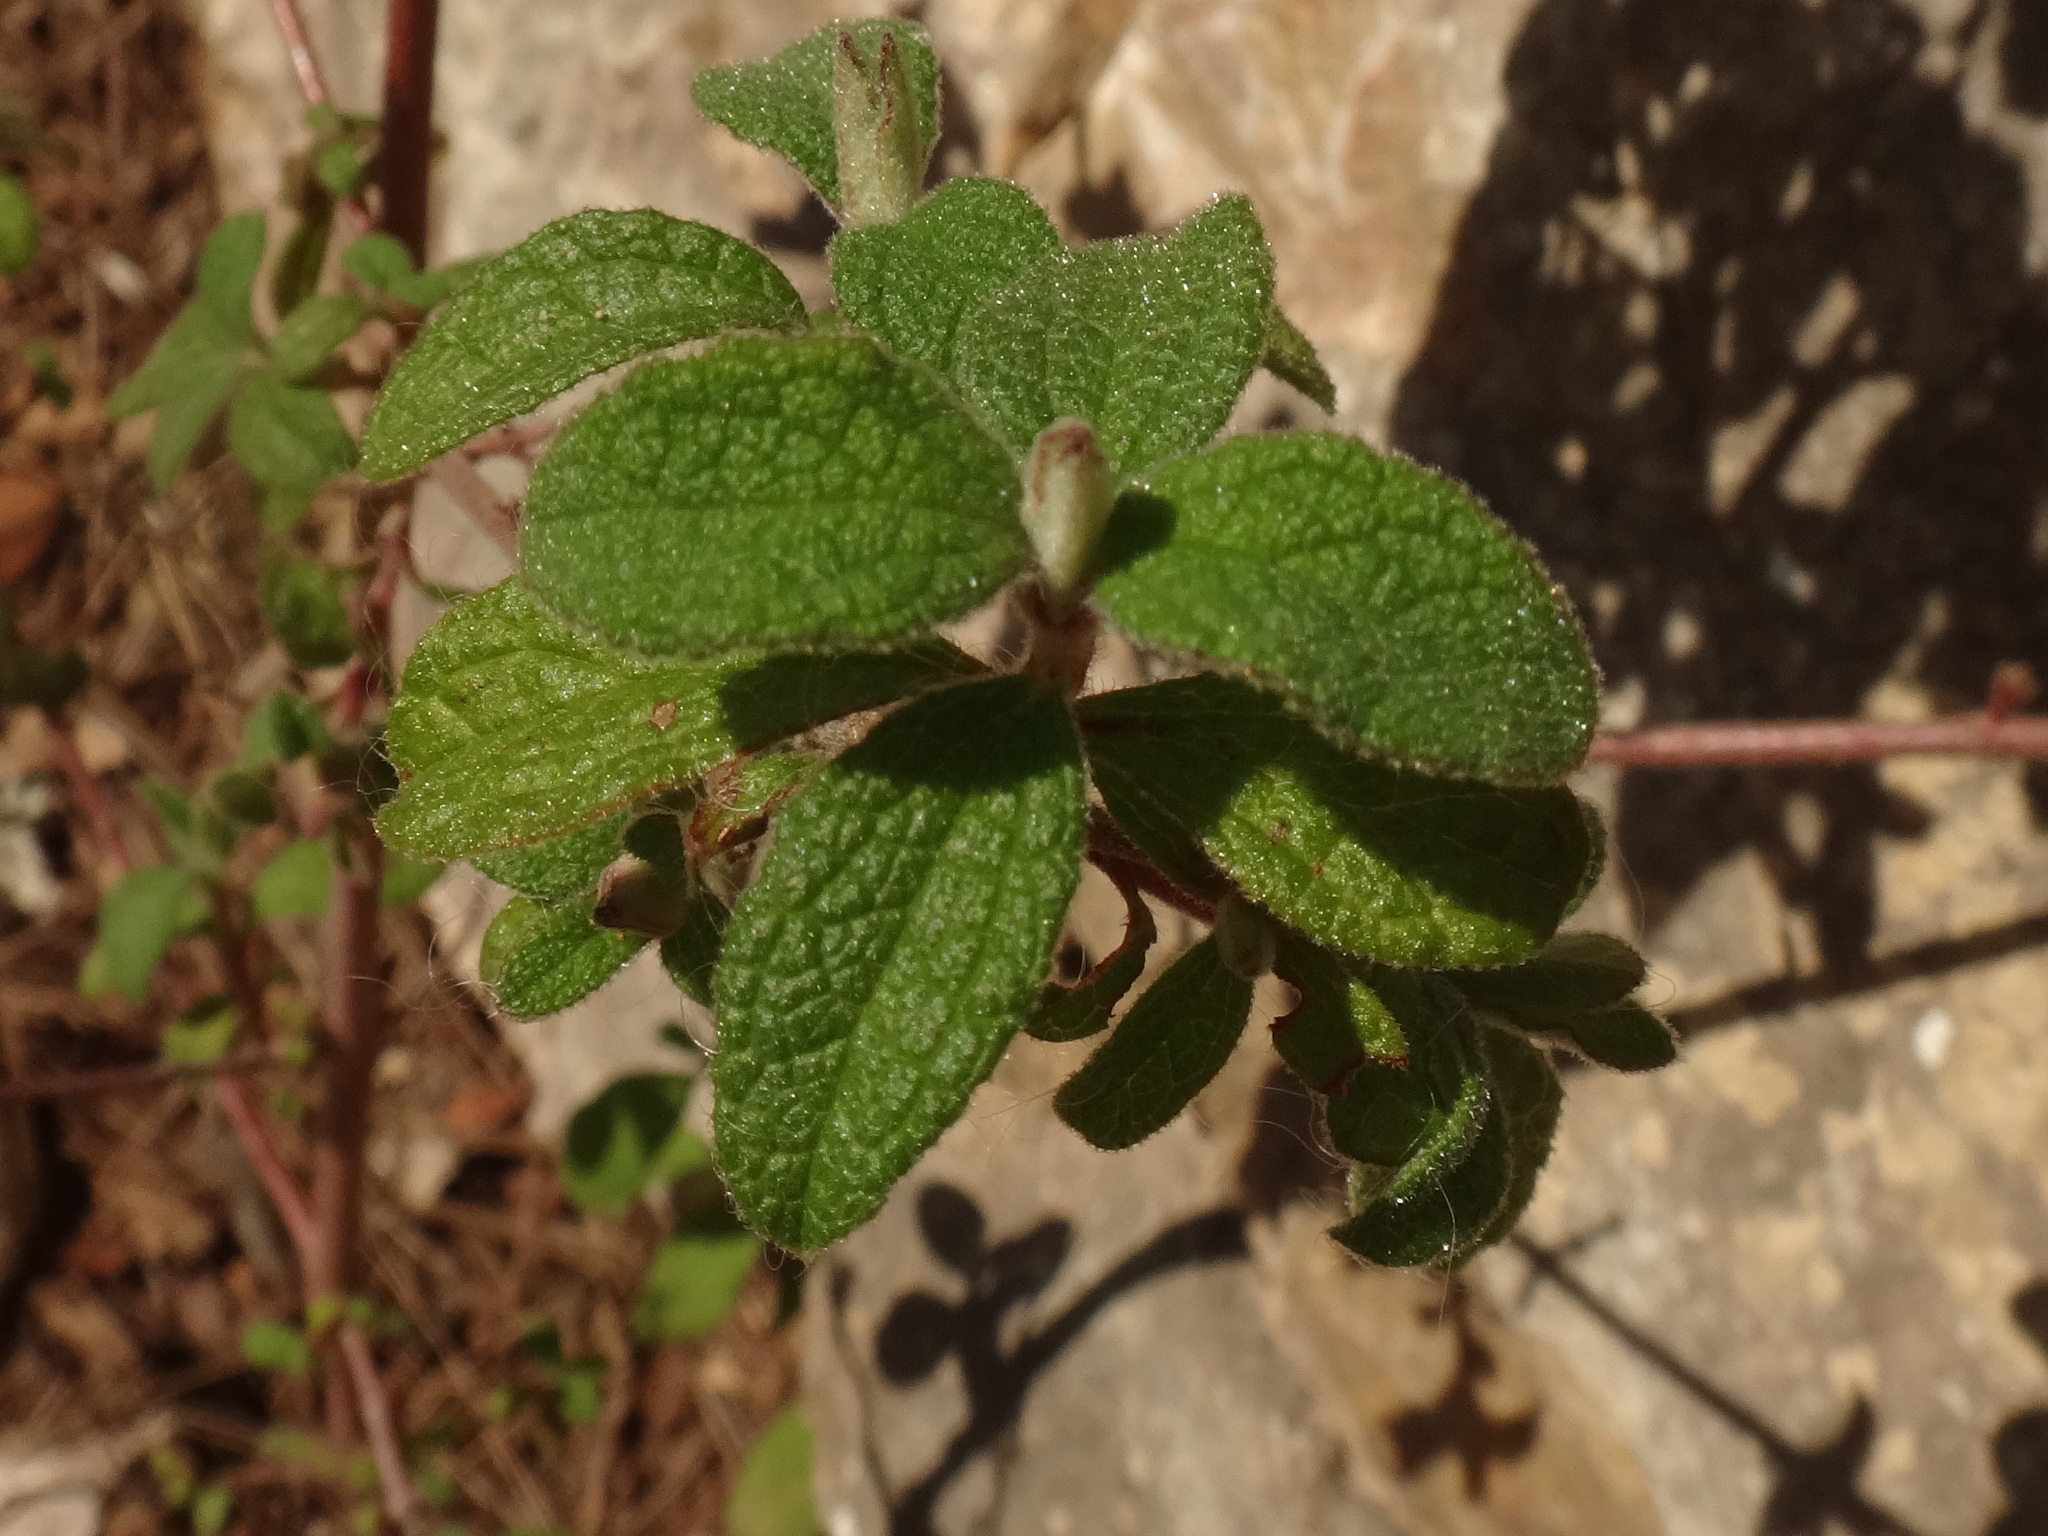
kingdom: Plantae
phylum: Tracheophyta
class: Magnoliopsida
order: Malvales
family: Cistaceae
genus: Cistus
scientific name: Cistus salviifolius
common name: Salvia cistus
